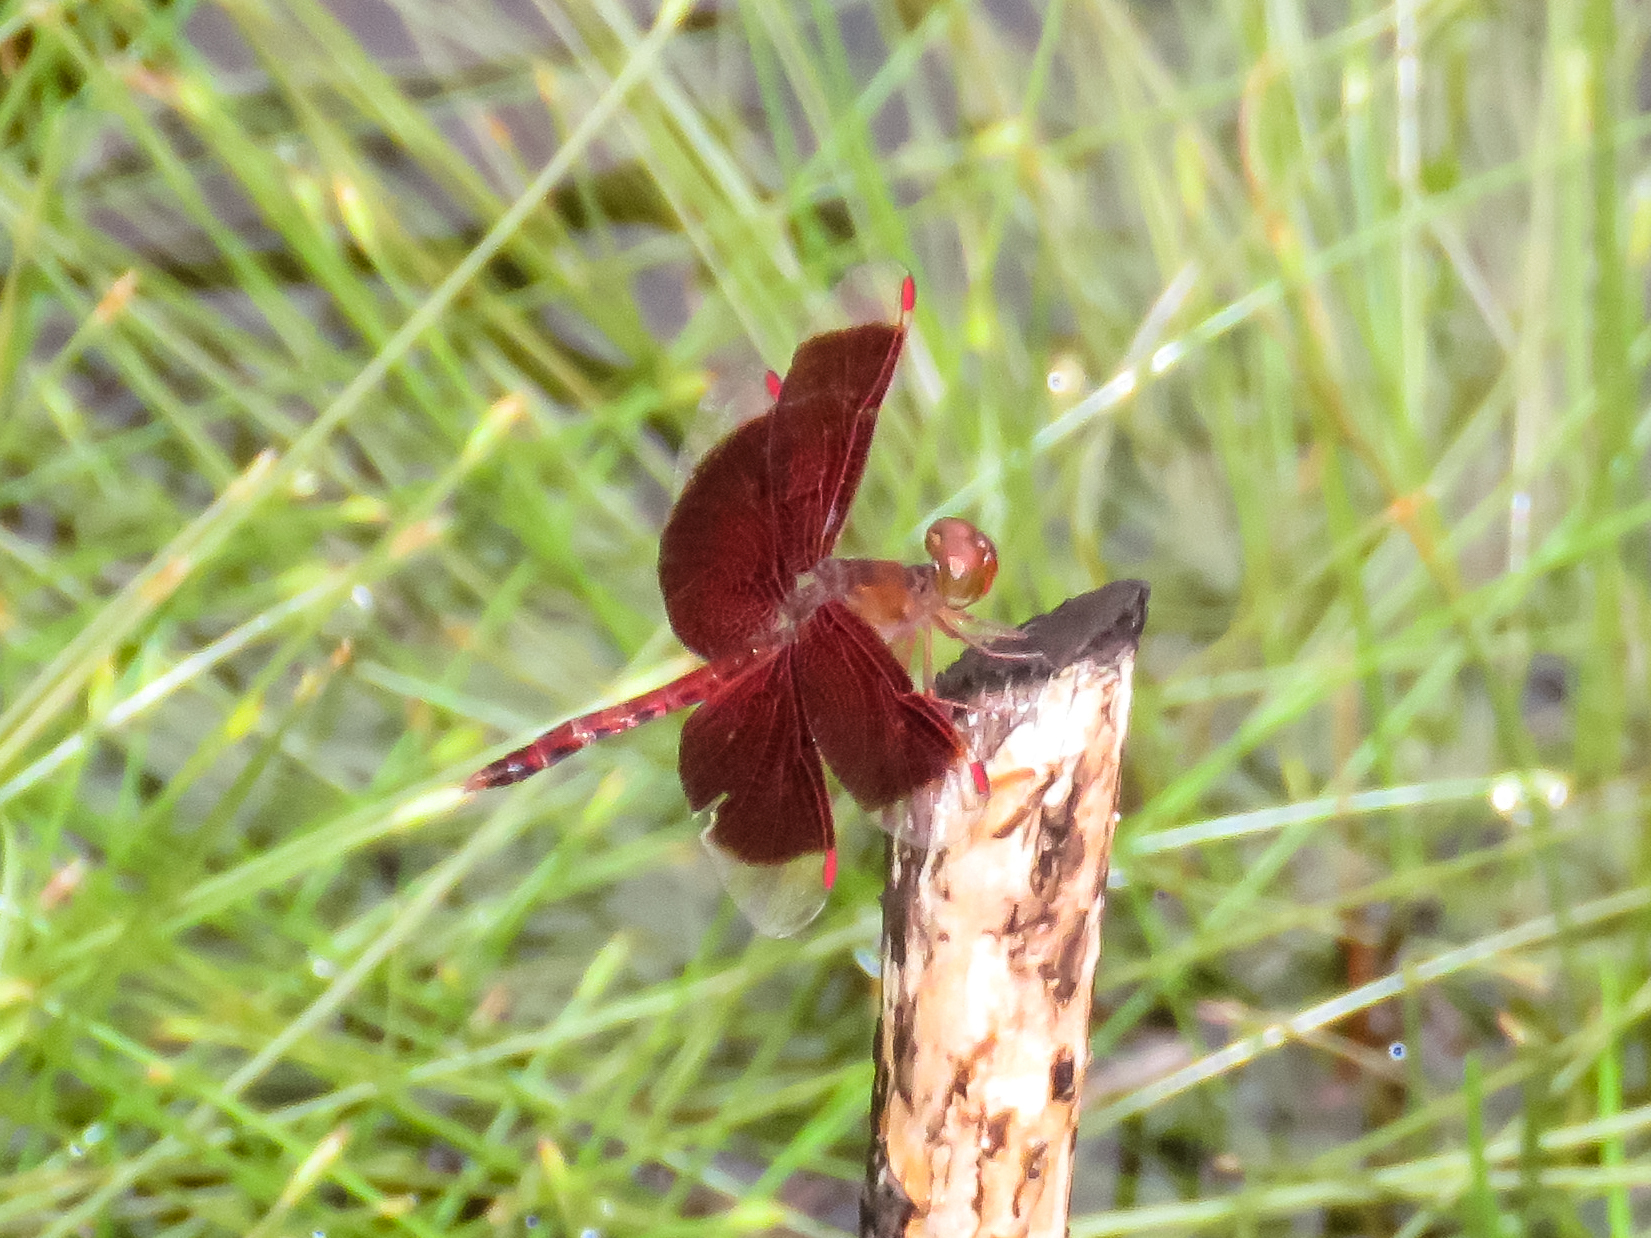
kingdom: Animalia
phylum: Arthropoda
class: Insecta
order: Odonata
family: Libellulidae
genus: Neurothemis
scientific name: Neurothemis fluctuans
